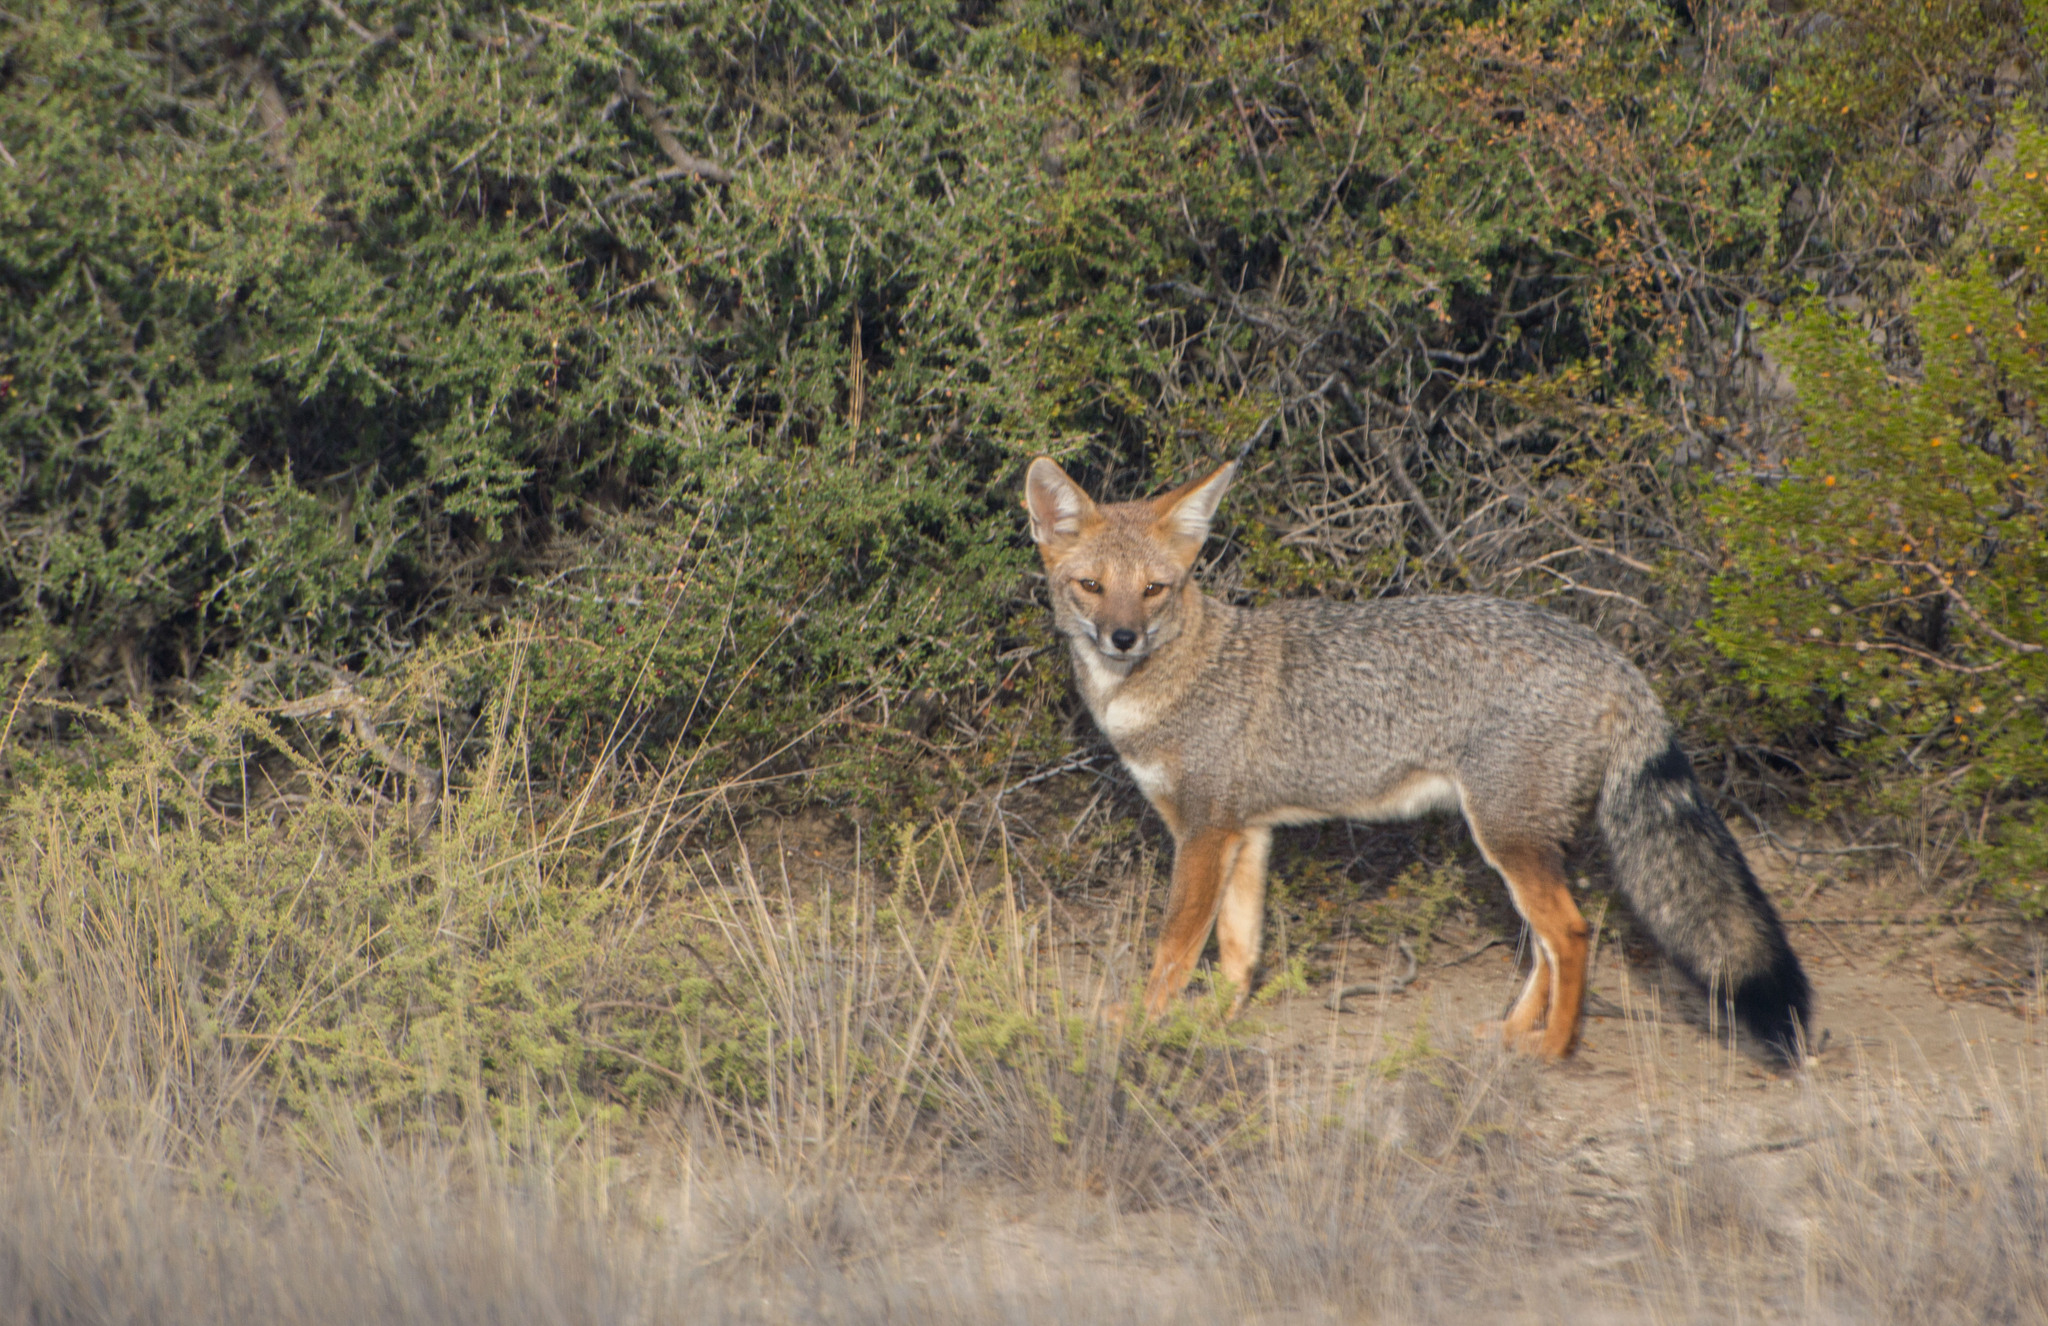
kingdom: Animalia
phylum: Chordata
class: Mammalia
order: Carnivora
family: Canidae
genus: Lycalopex
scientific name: Lycalopex gymnocercus
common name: Pampas fox
